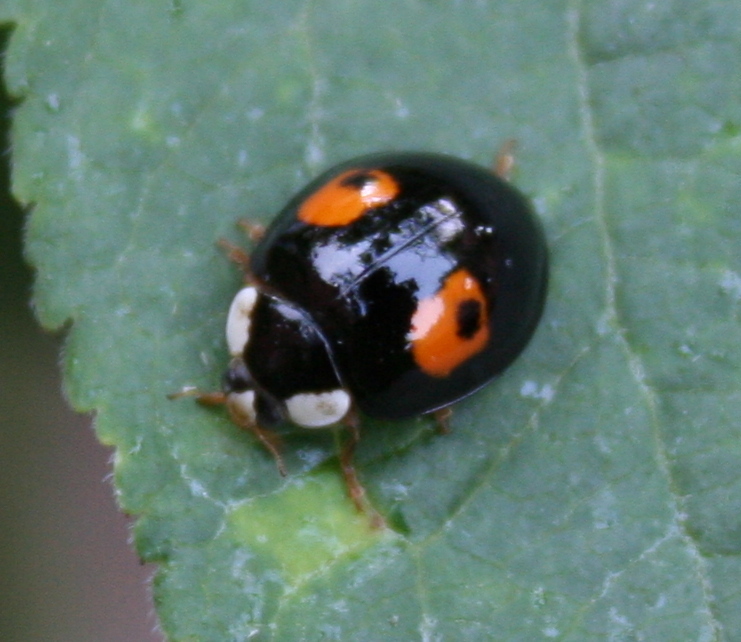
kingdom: Animalia
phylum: Arthropoda
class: Insecta
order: Coleoptera
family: Coccinellidae
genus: Harmonia
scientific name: Harmonia axyridis
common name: Harlequin ladybird
